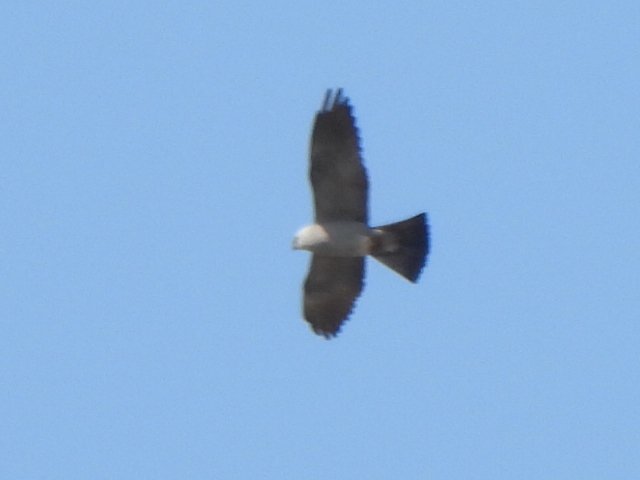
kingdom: Animalia
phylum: Chordata
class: Aves
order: Accipitriformes
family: Accipitridae
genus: Ictinia
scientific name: Ictinia mississippiensis
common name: Mississippi kite
